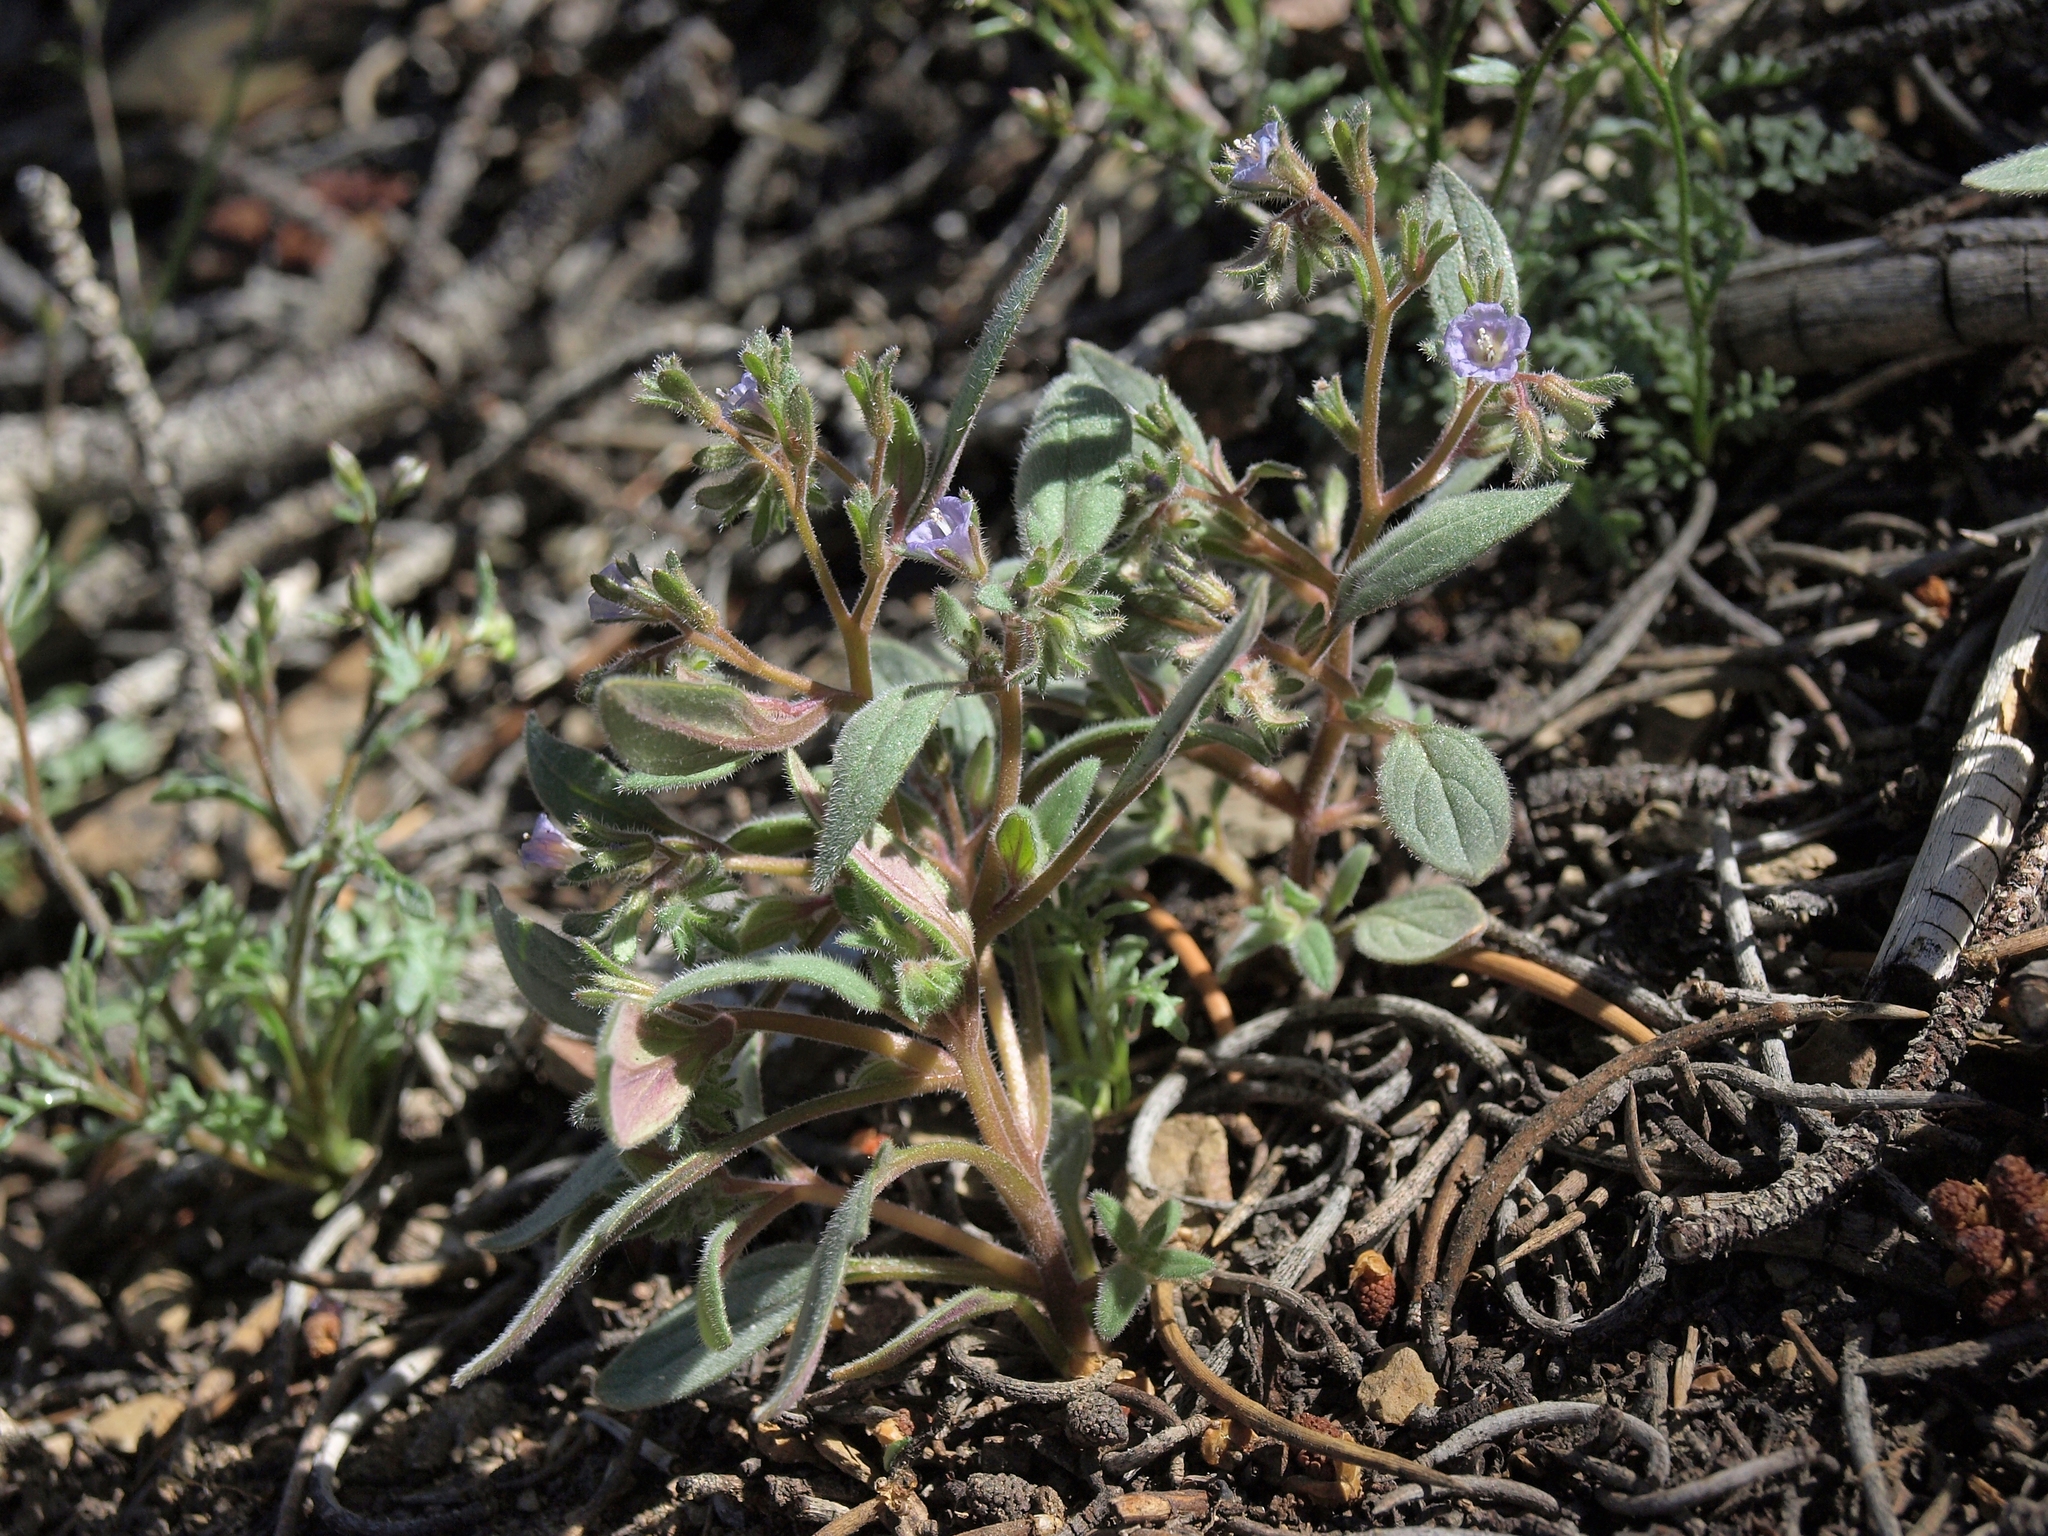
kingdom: Plantae
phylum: Tracheophyta
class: Magnoliopsida
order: Boraginales
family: Hydrophyllaceae
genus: Phacelia
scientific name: Phacelia austromontana
